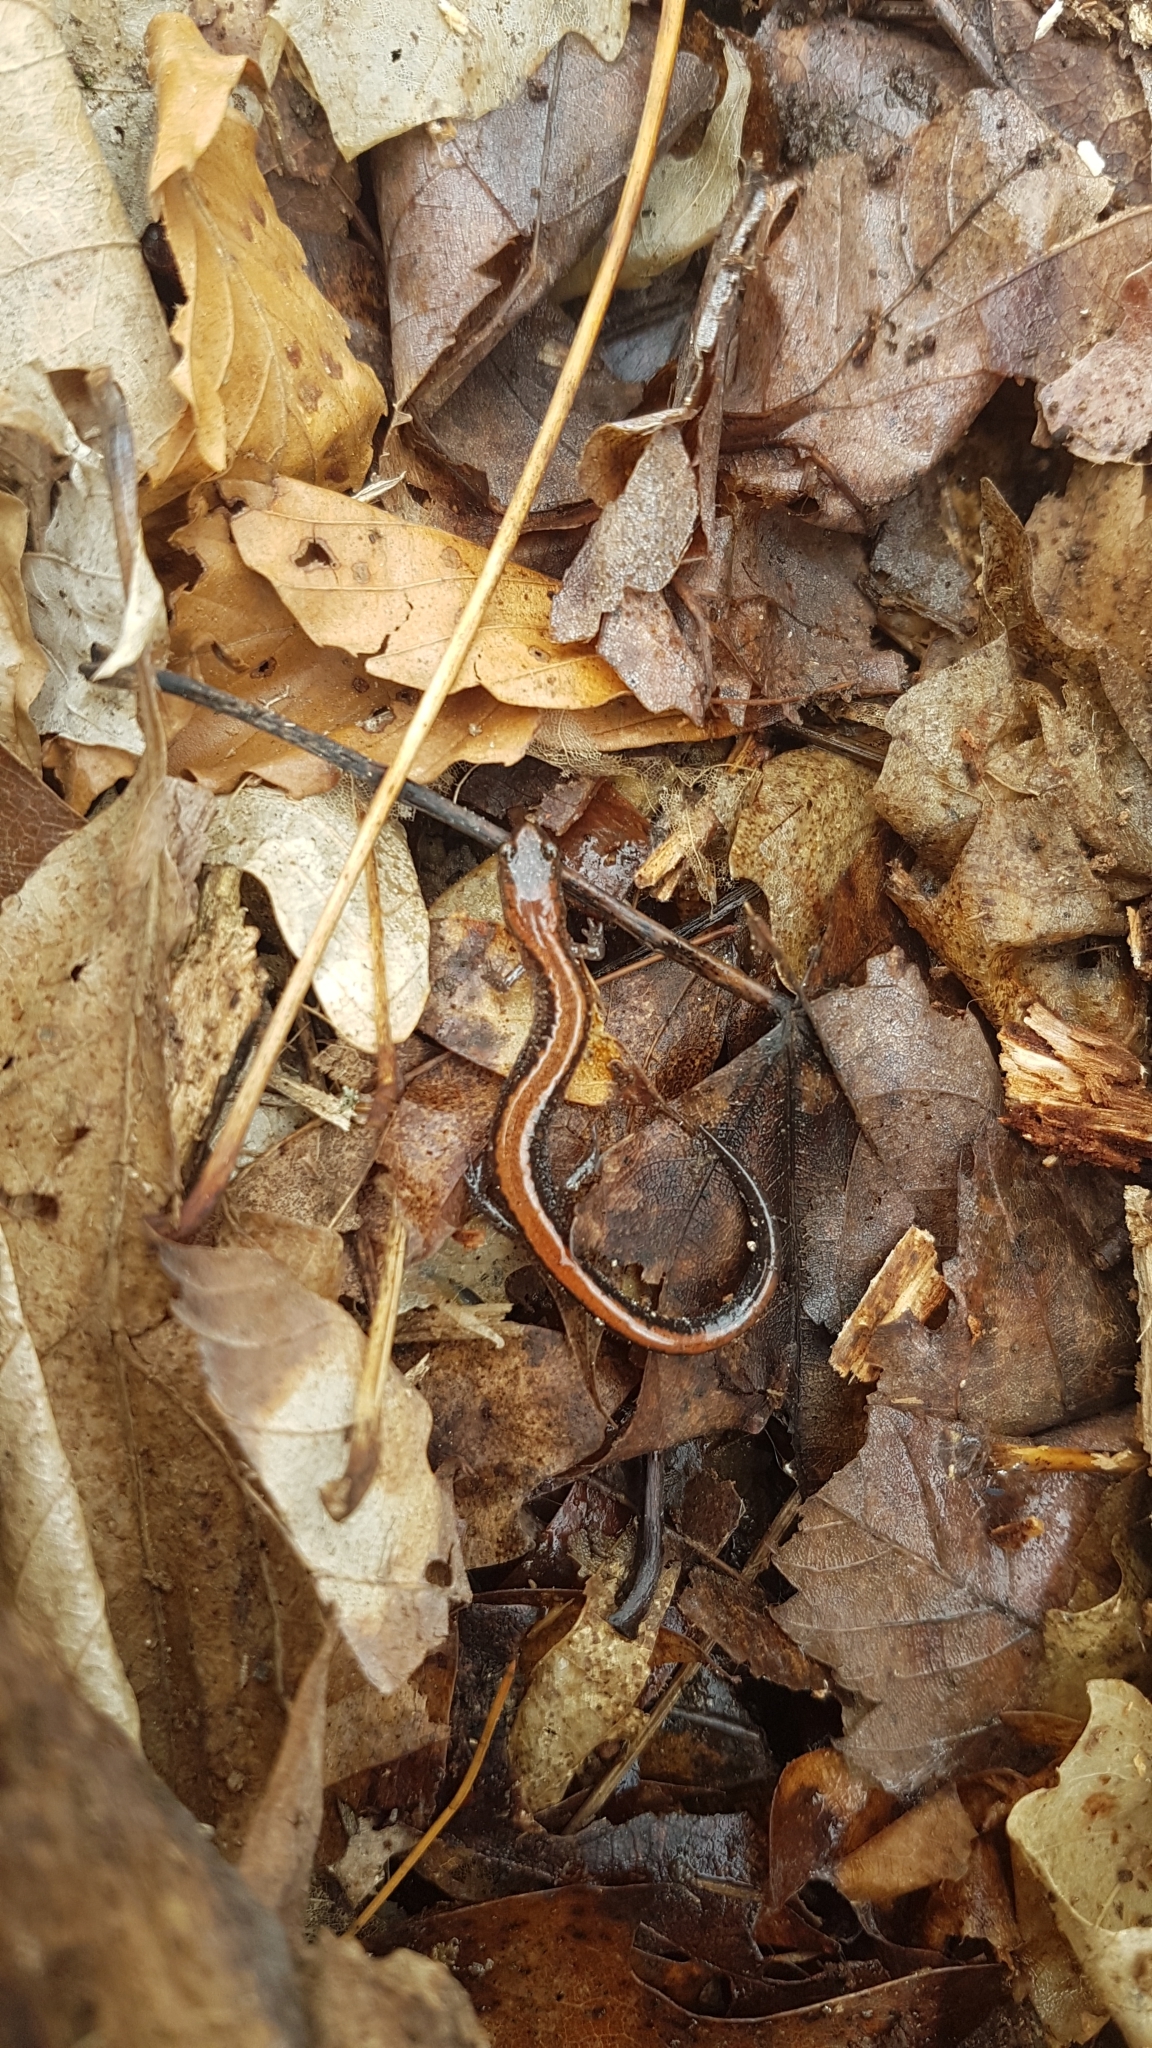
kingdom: Animalia
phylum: Chordata
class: Amphibia
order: Caudata
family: Plethodontidae
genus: Plethodon
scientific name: Plethodon cinereus
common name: Redback salamander
